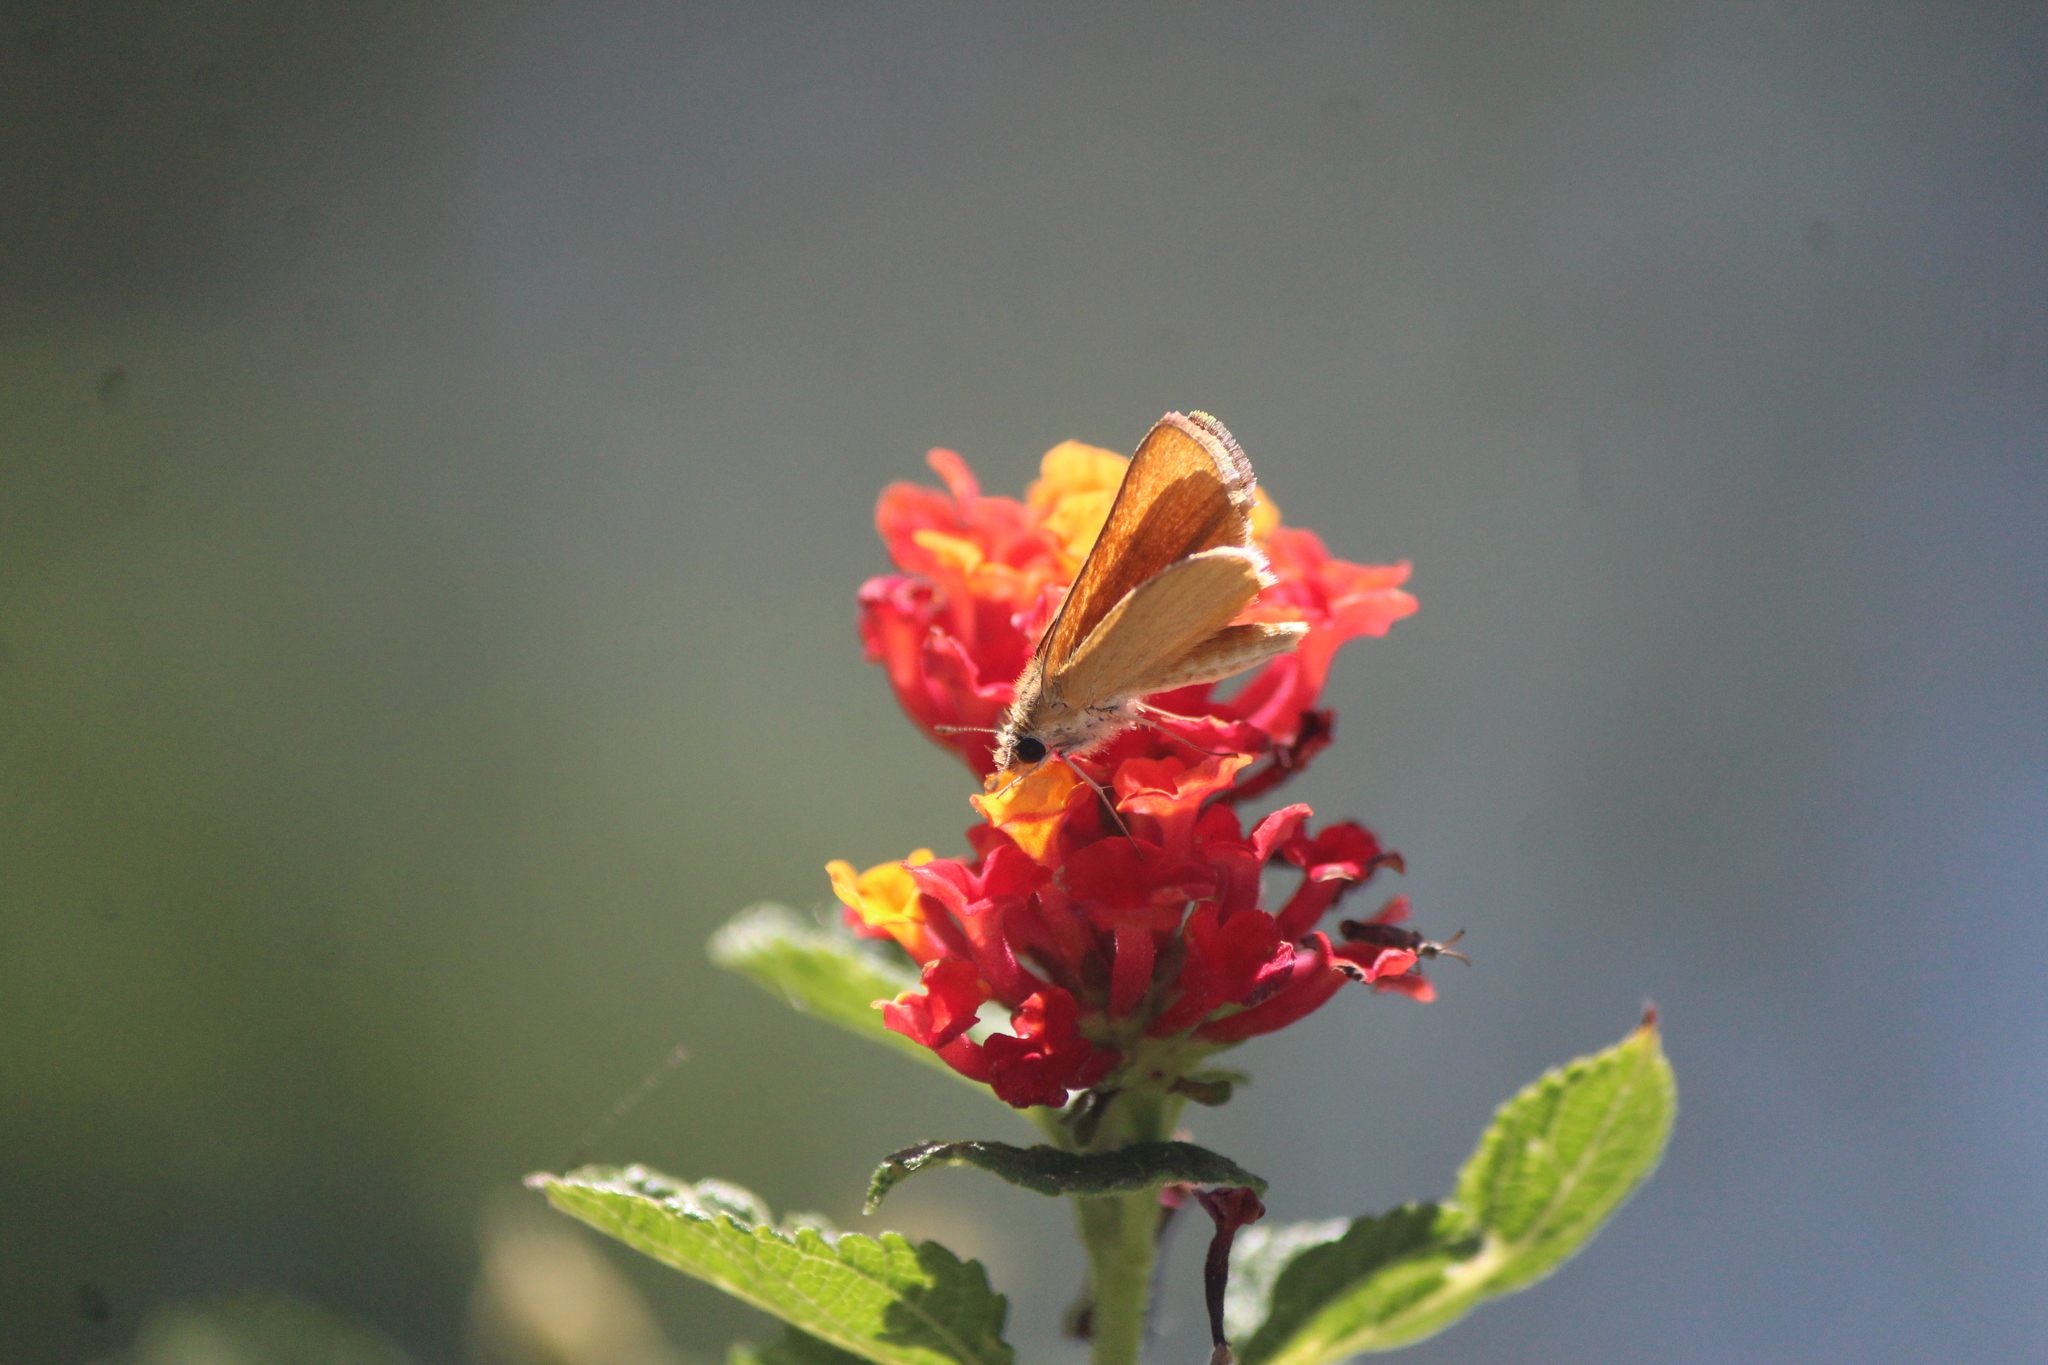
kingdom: Animalia
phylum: Arthropoda
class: Insecta
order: Lepidoptera
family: Hesperiidae
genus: Copaeodes
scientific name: Copaeodes aurantiaca
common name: Orange skipperling
